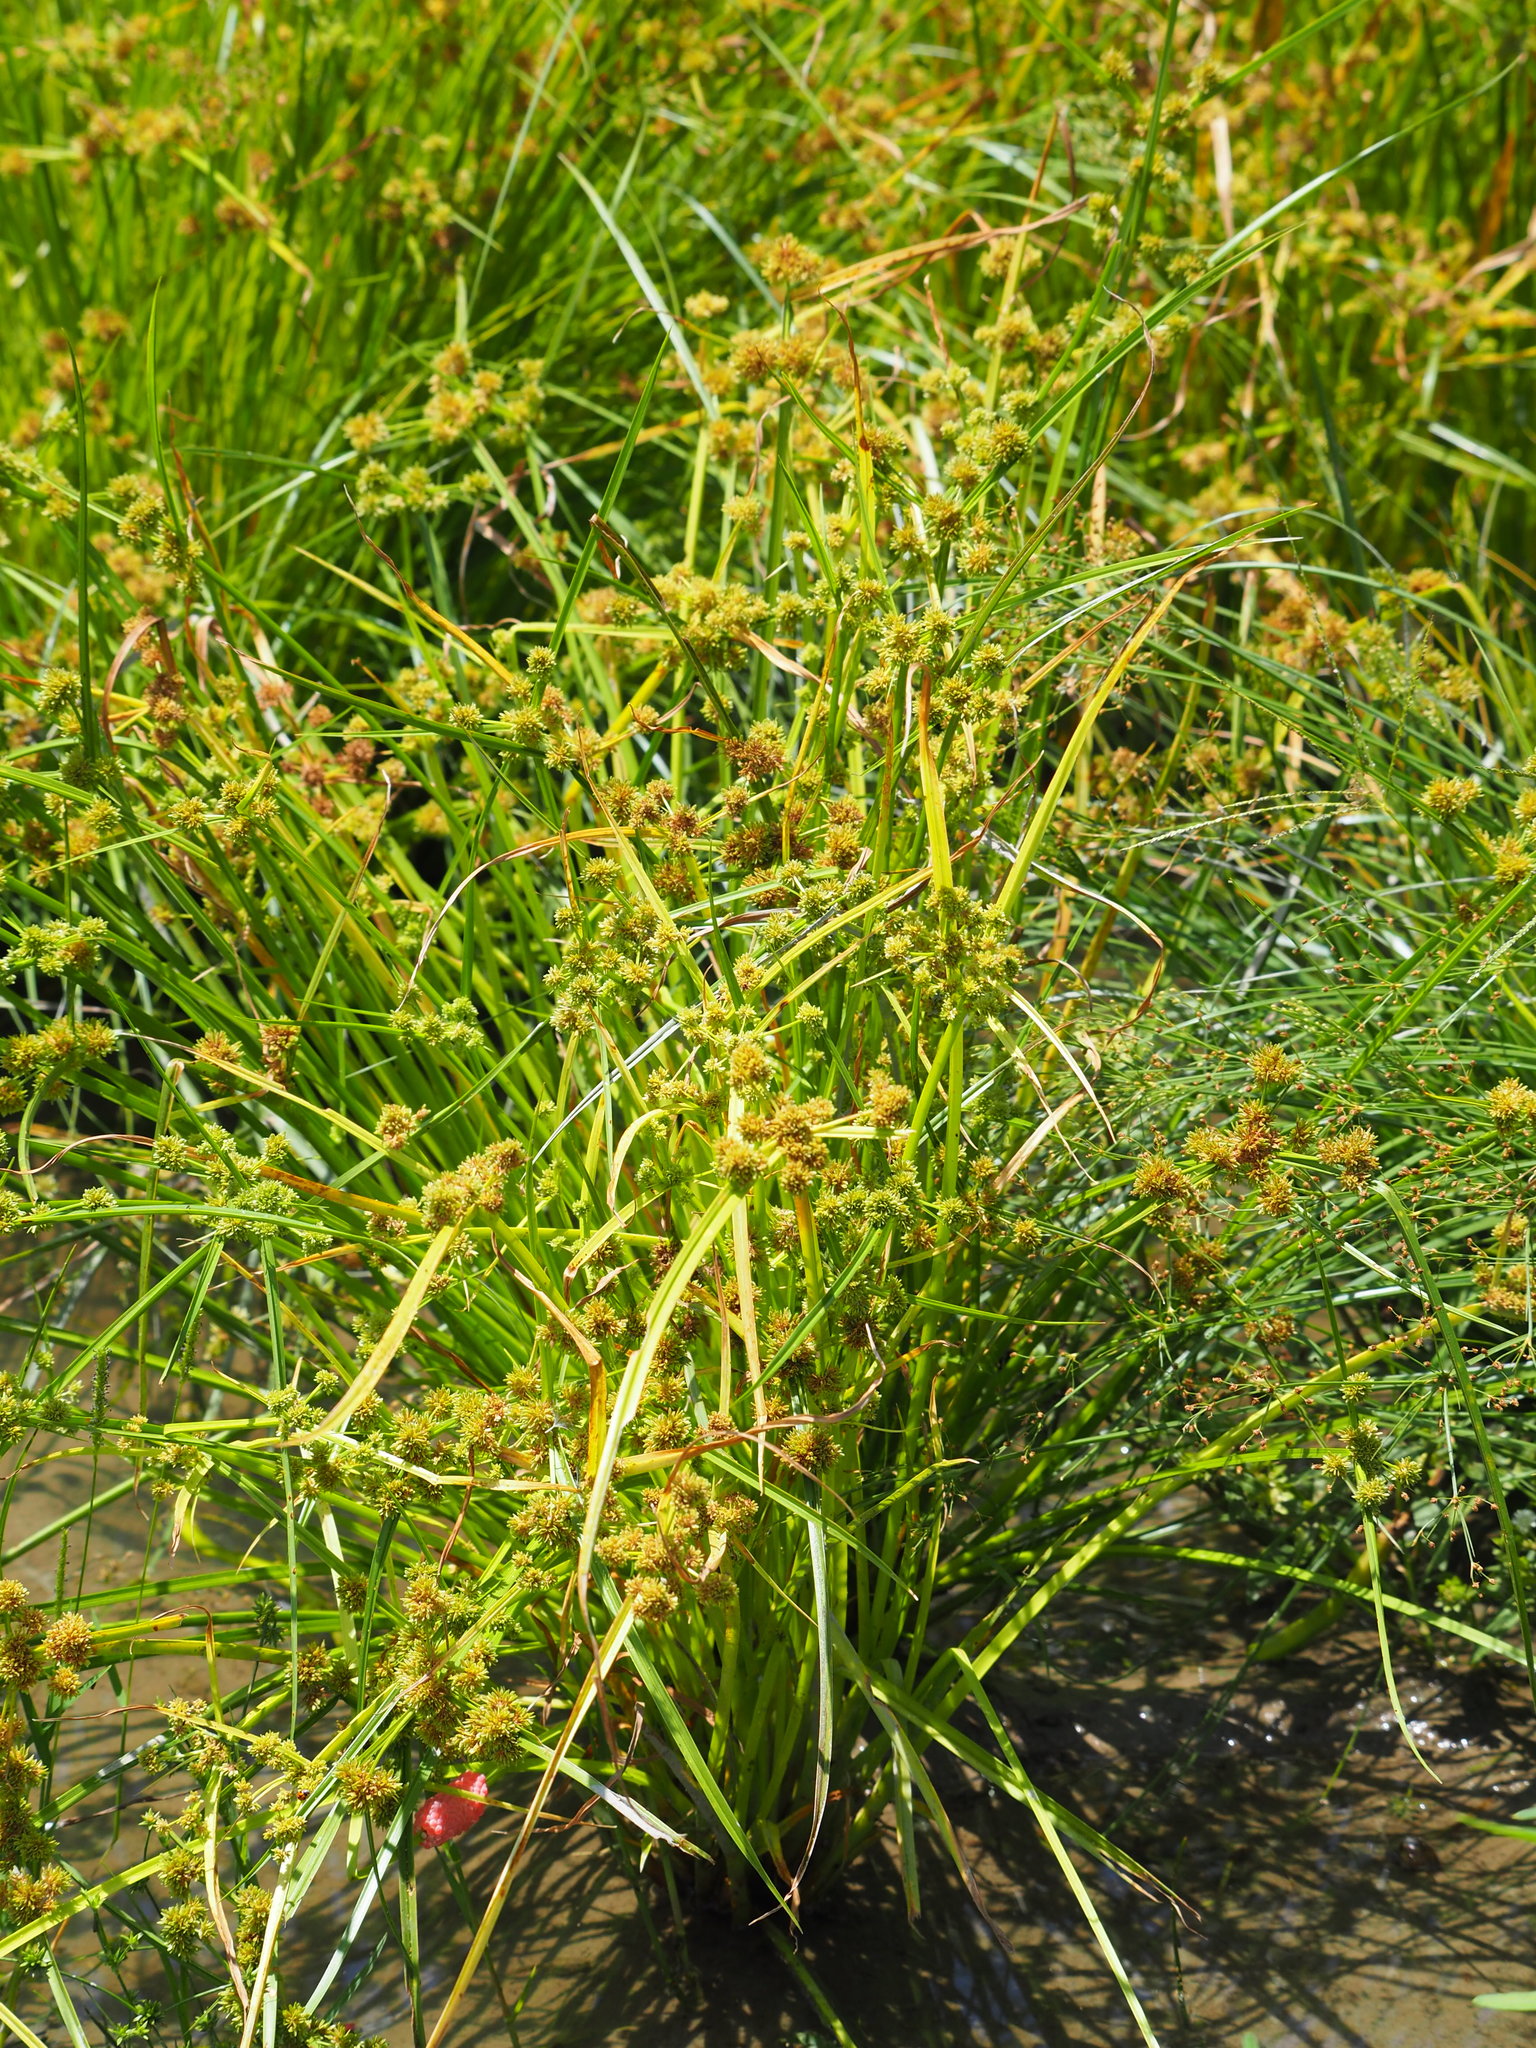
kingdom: Plantae
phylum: Tracheophyta
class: Liliopsida
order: Poales
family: Cyperaceae
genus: Cyperus
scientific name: Cyperus difformis
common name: Variable flatsedge
